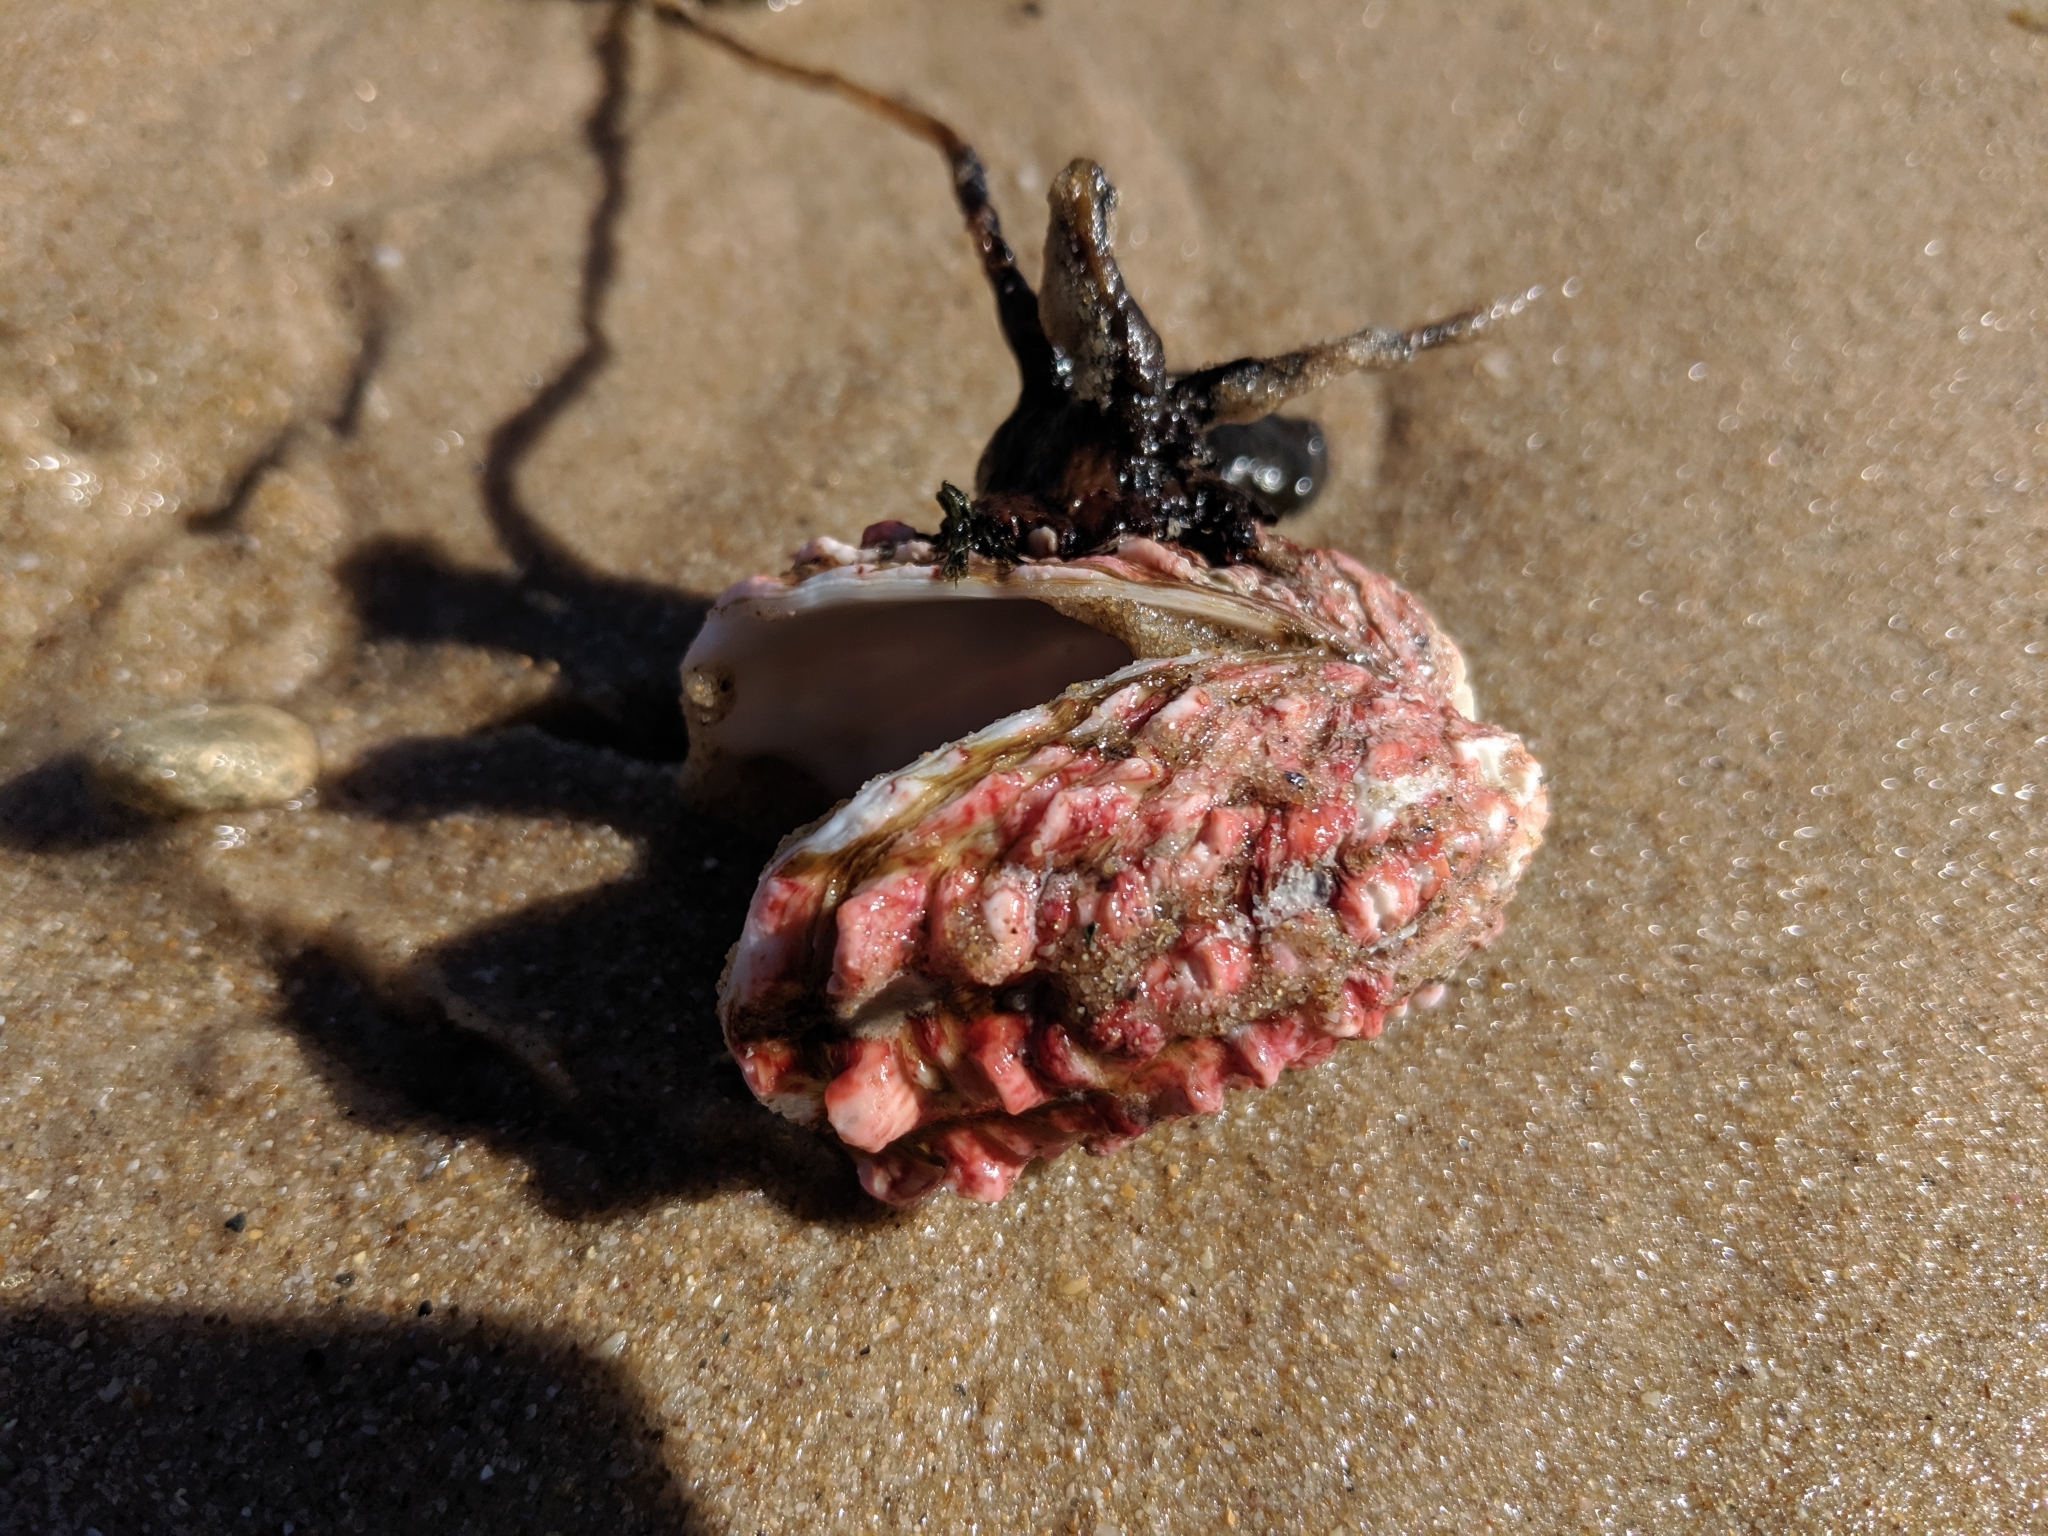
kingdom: Animalia
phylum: Mollusca
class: Bivalvia
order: Carditida
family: Carditidae
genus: Cardita
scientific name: Cardita crassicosta
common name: Large-ribbed cardita
